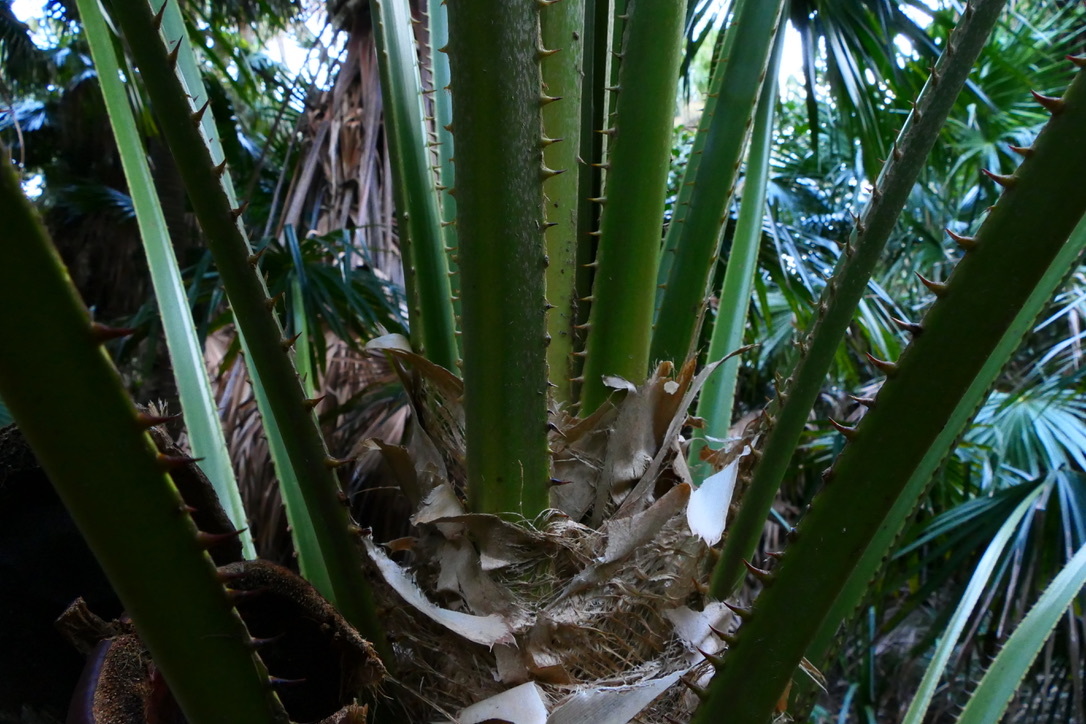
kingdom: Plantae
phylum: Tracheophyta
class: Liliopsida
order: Arecales
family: Arecaceae
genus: Livistona
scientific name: Livistona australis
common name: Cabbage fan palm
